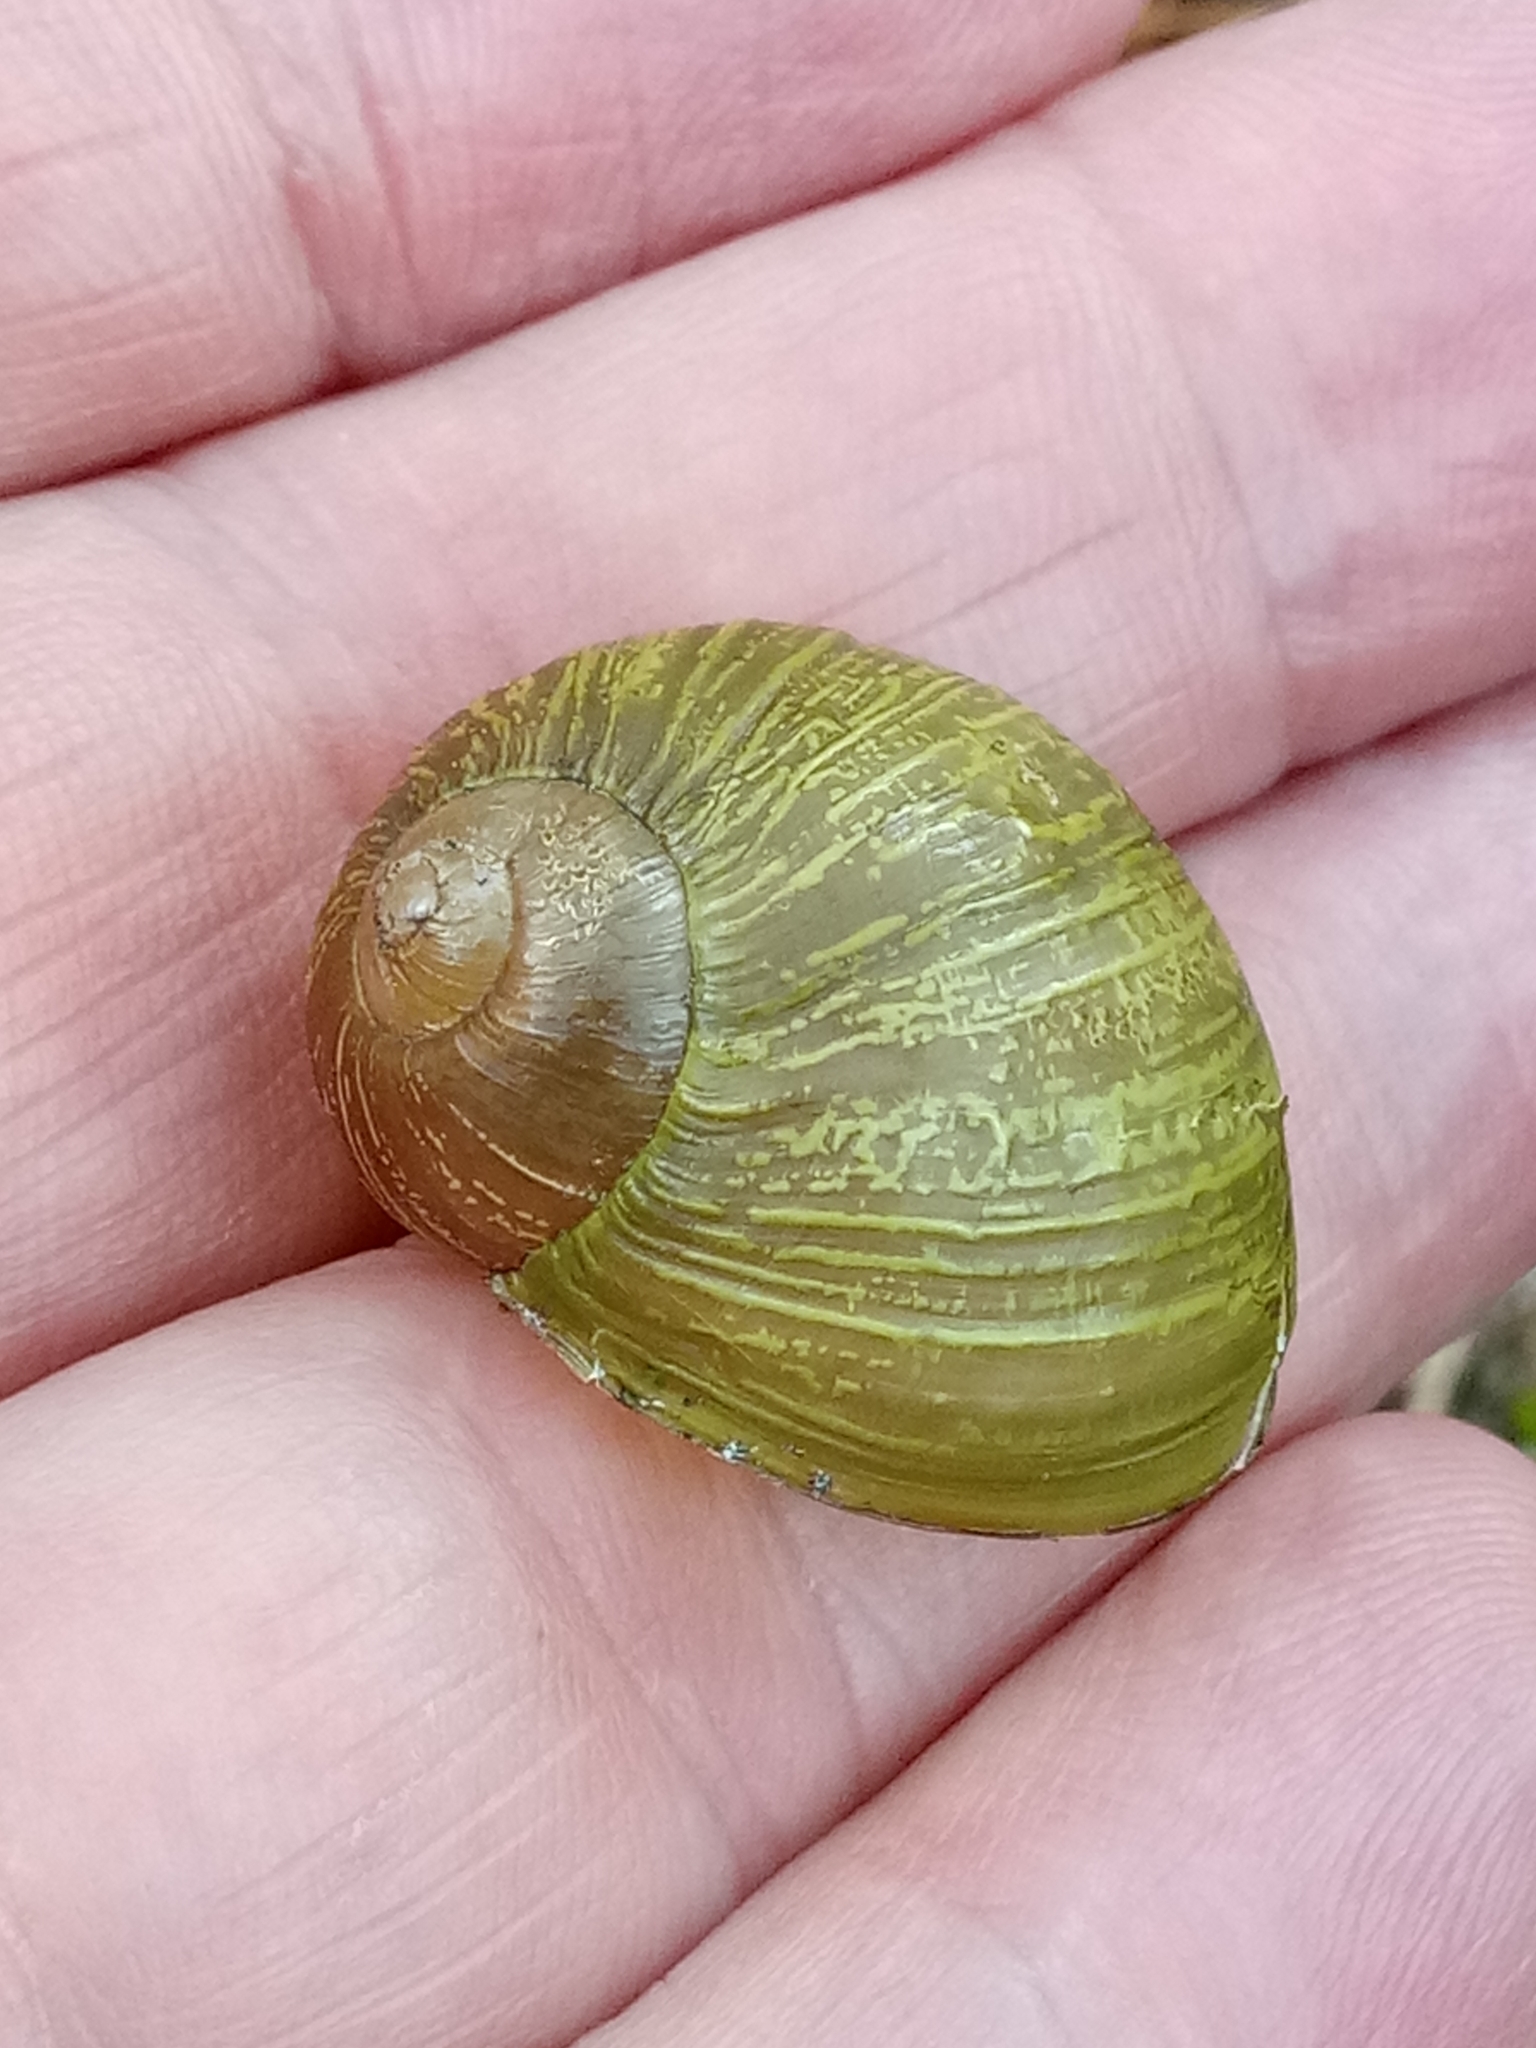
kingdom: Animalia
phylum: Mollusca
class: Gastropoda
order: Stylommatophora
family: Helicidae
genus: Cantareus
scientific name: Cantareus apertus
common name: Green gardensnail
